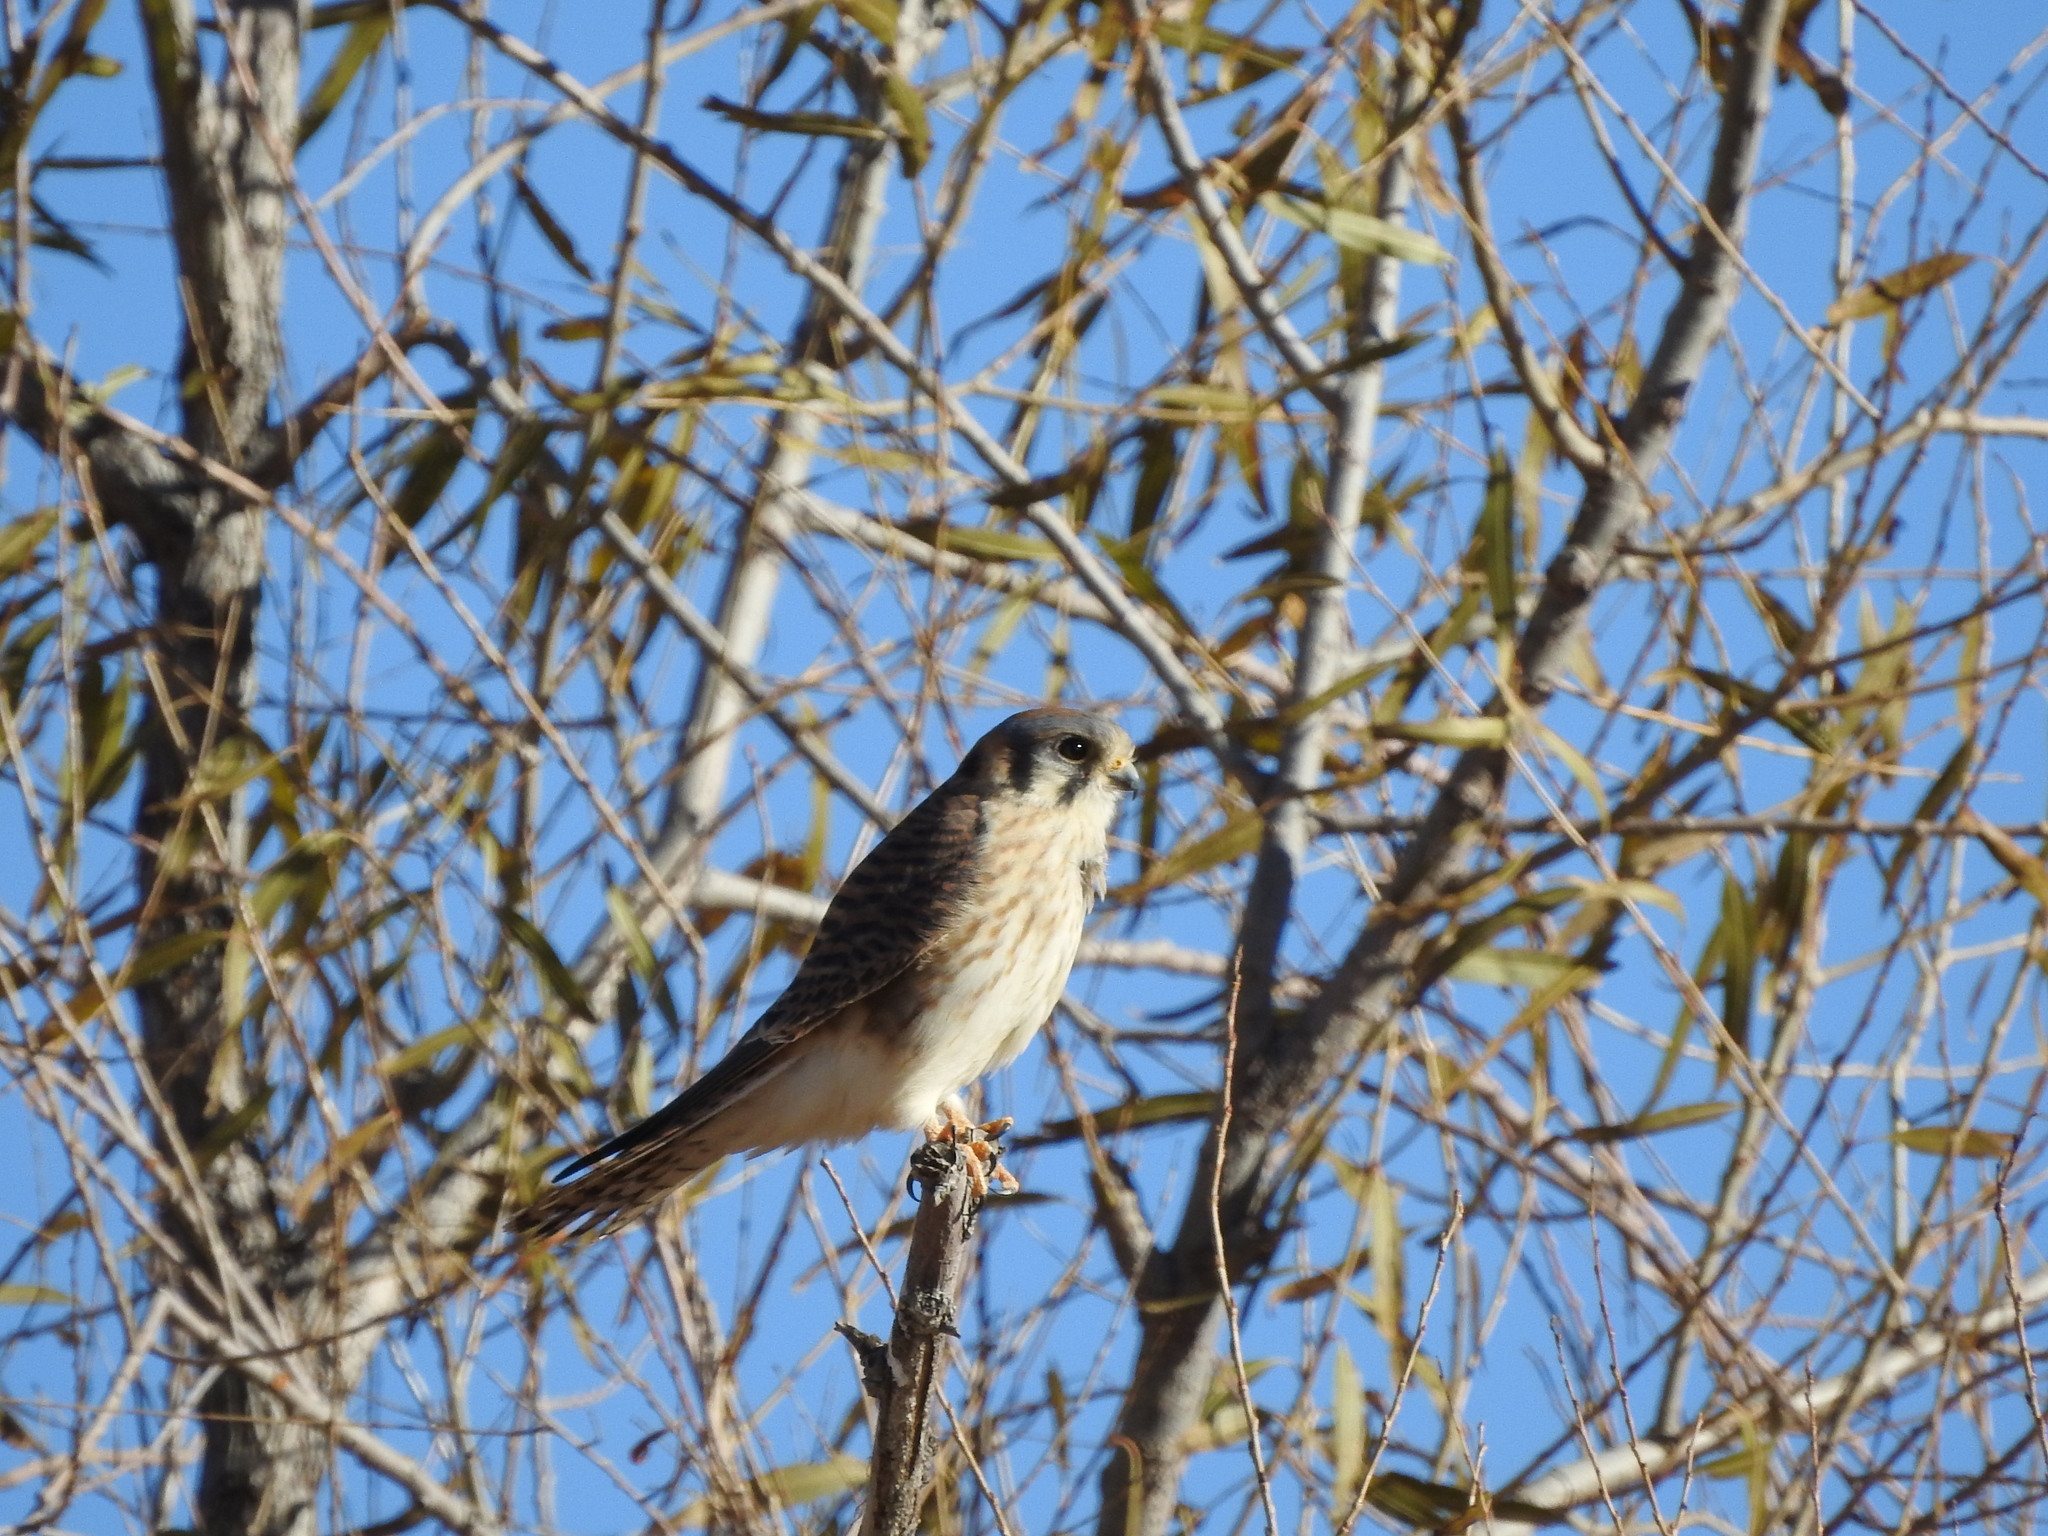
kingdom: Animalia
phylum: Chordata
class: Aves
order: Falconiformes
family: Falconidae
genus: Falco
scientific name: Falco sparverius
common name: American kestrel
